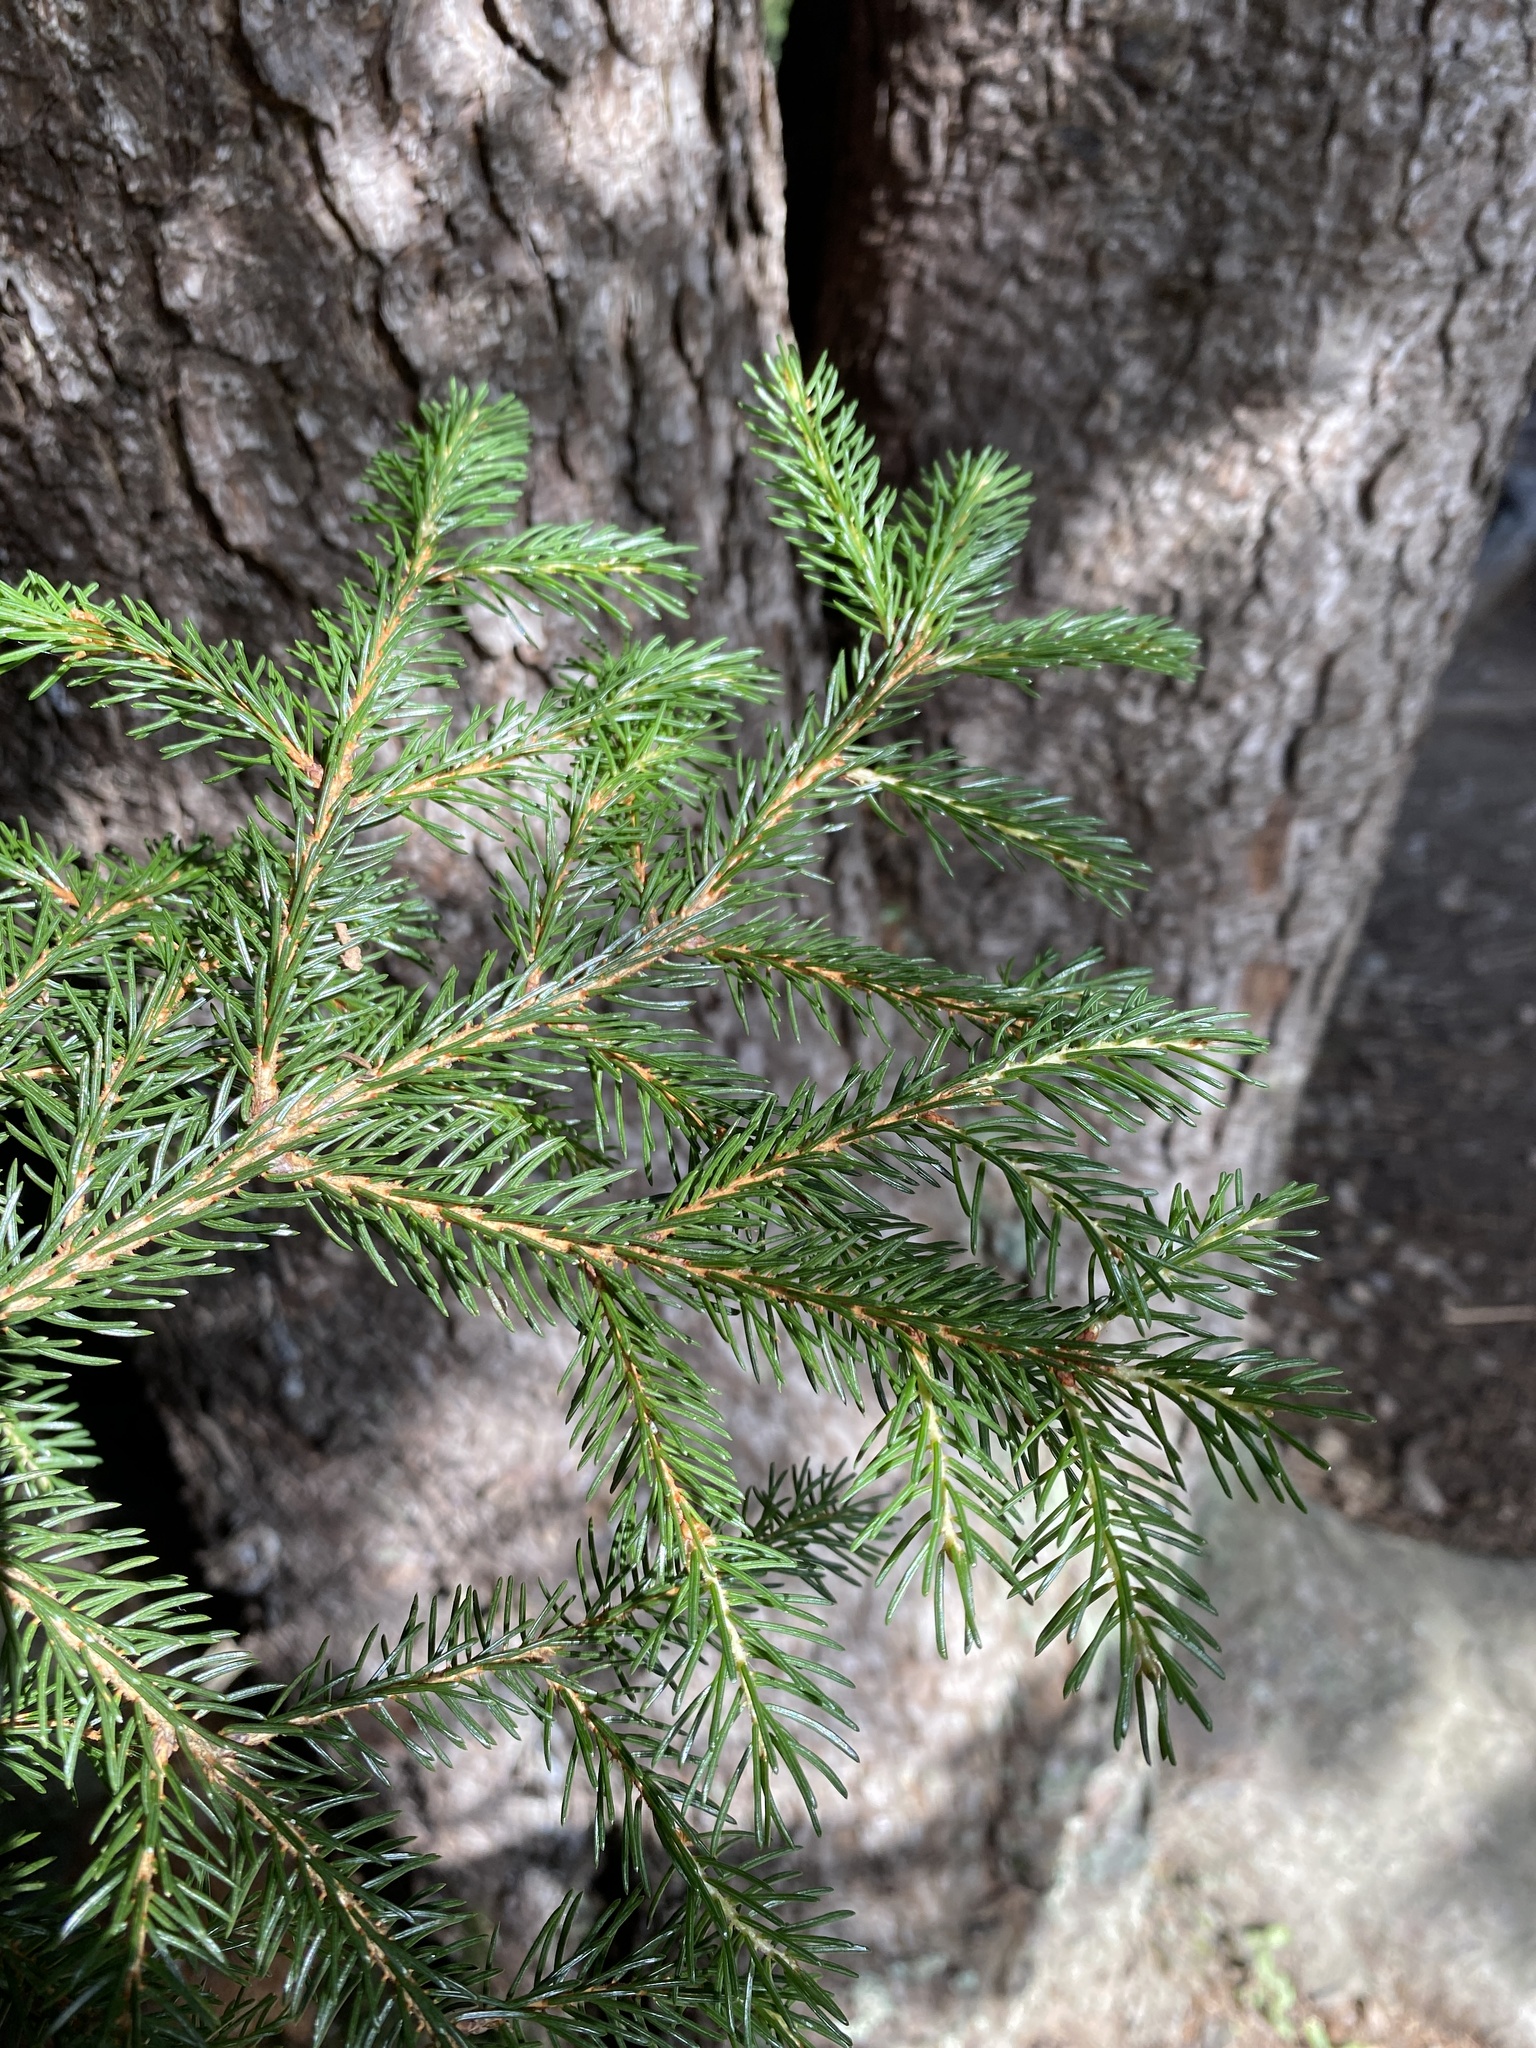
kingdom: Plantae
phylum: Tracheophyta
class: Pinopsida
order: Pinales
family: Pinaceae
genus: Picea
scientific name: Picea rubens
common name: Red spruce
